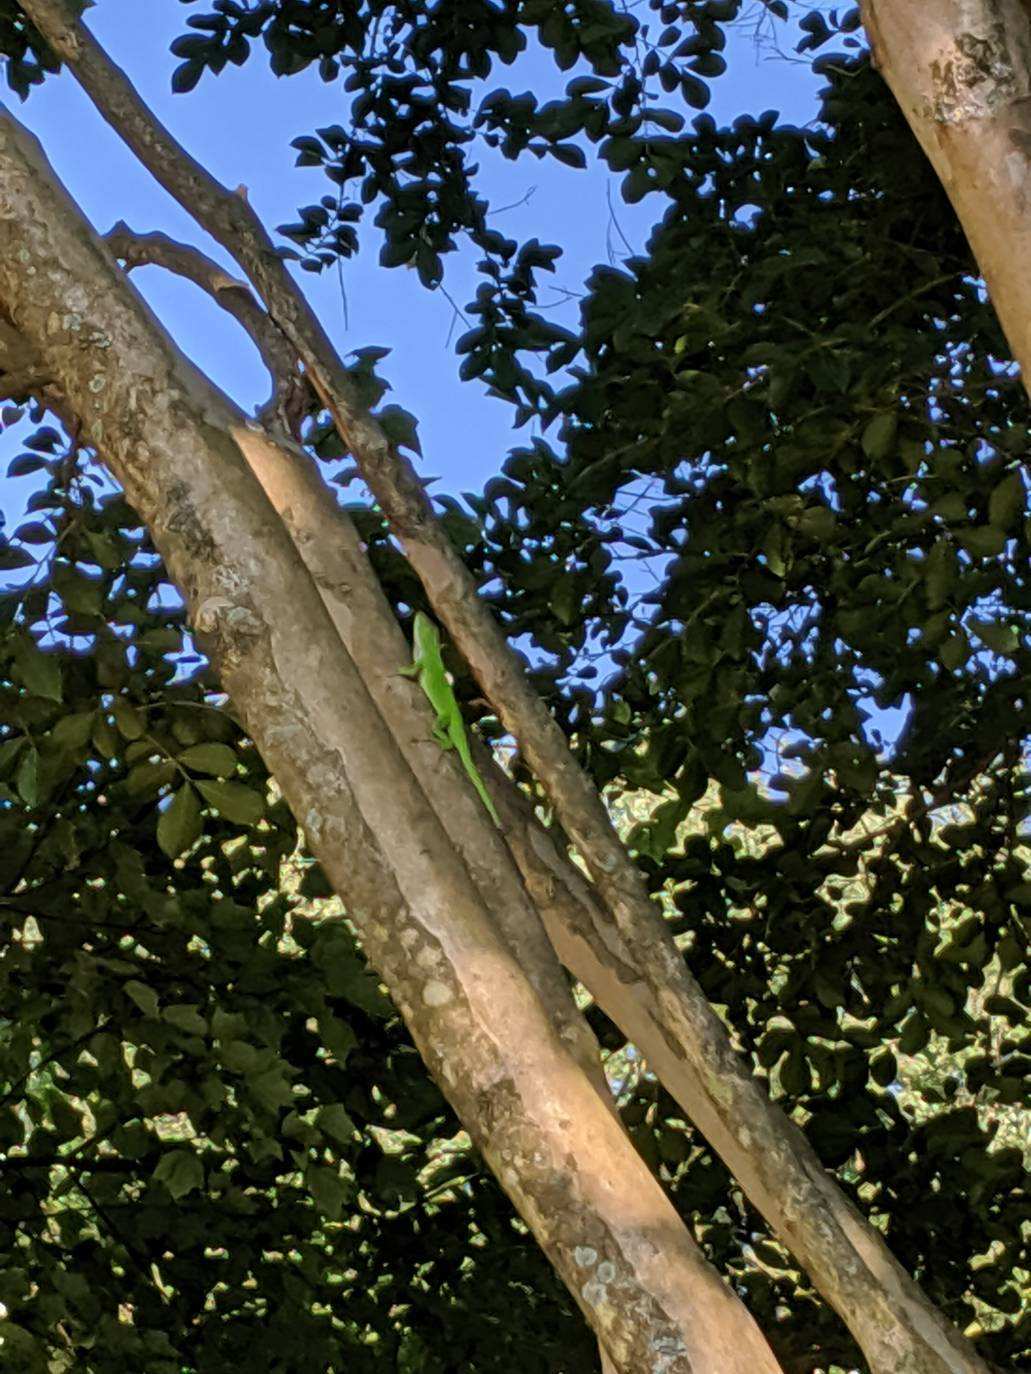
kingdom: Animalia
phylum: Chordata
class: Squamata
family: Dactyloidae
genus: Anolis
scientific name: Anolis carolinensis
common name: Green anole
